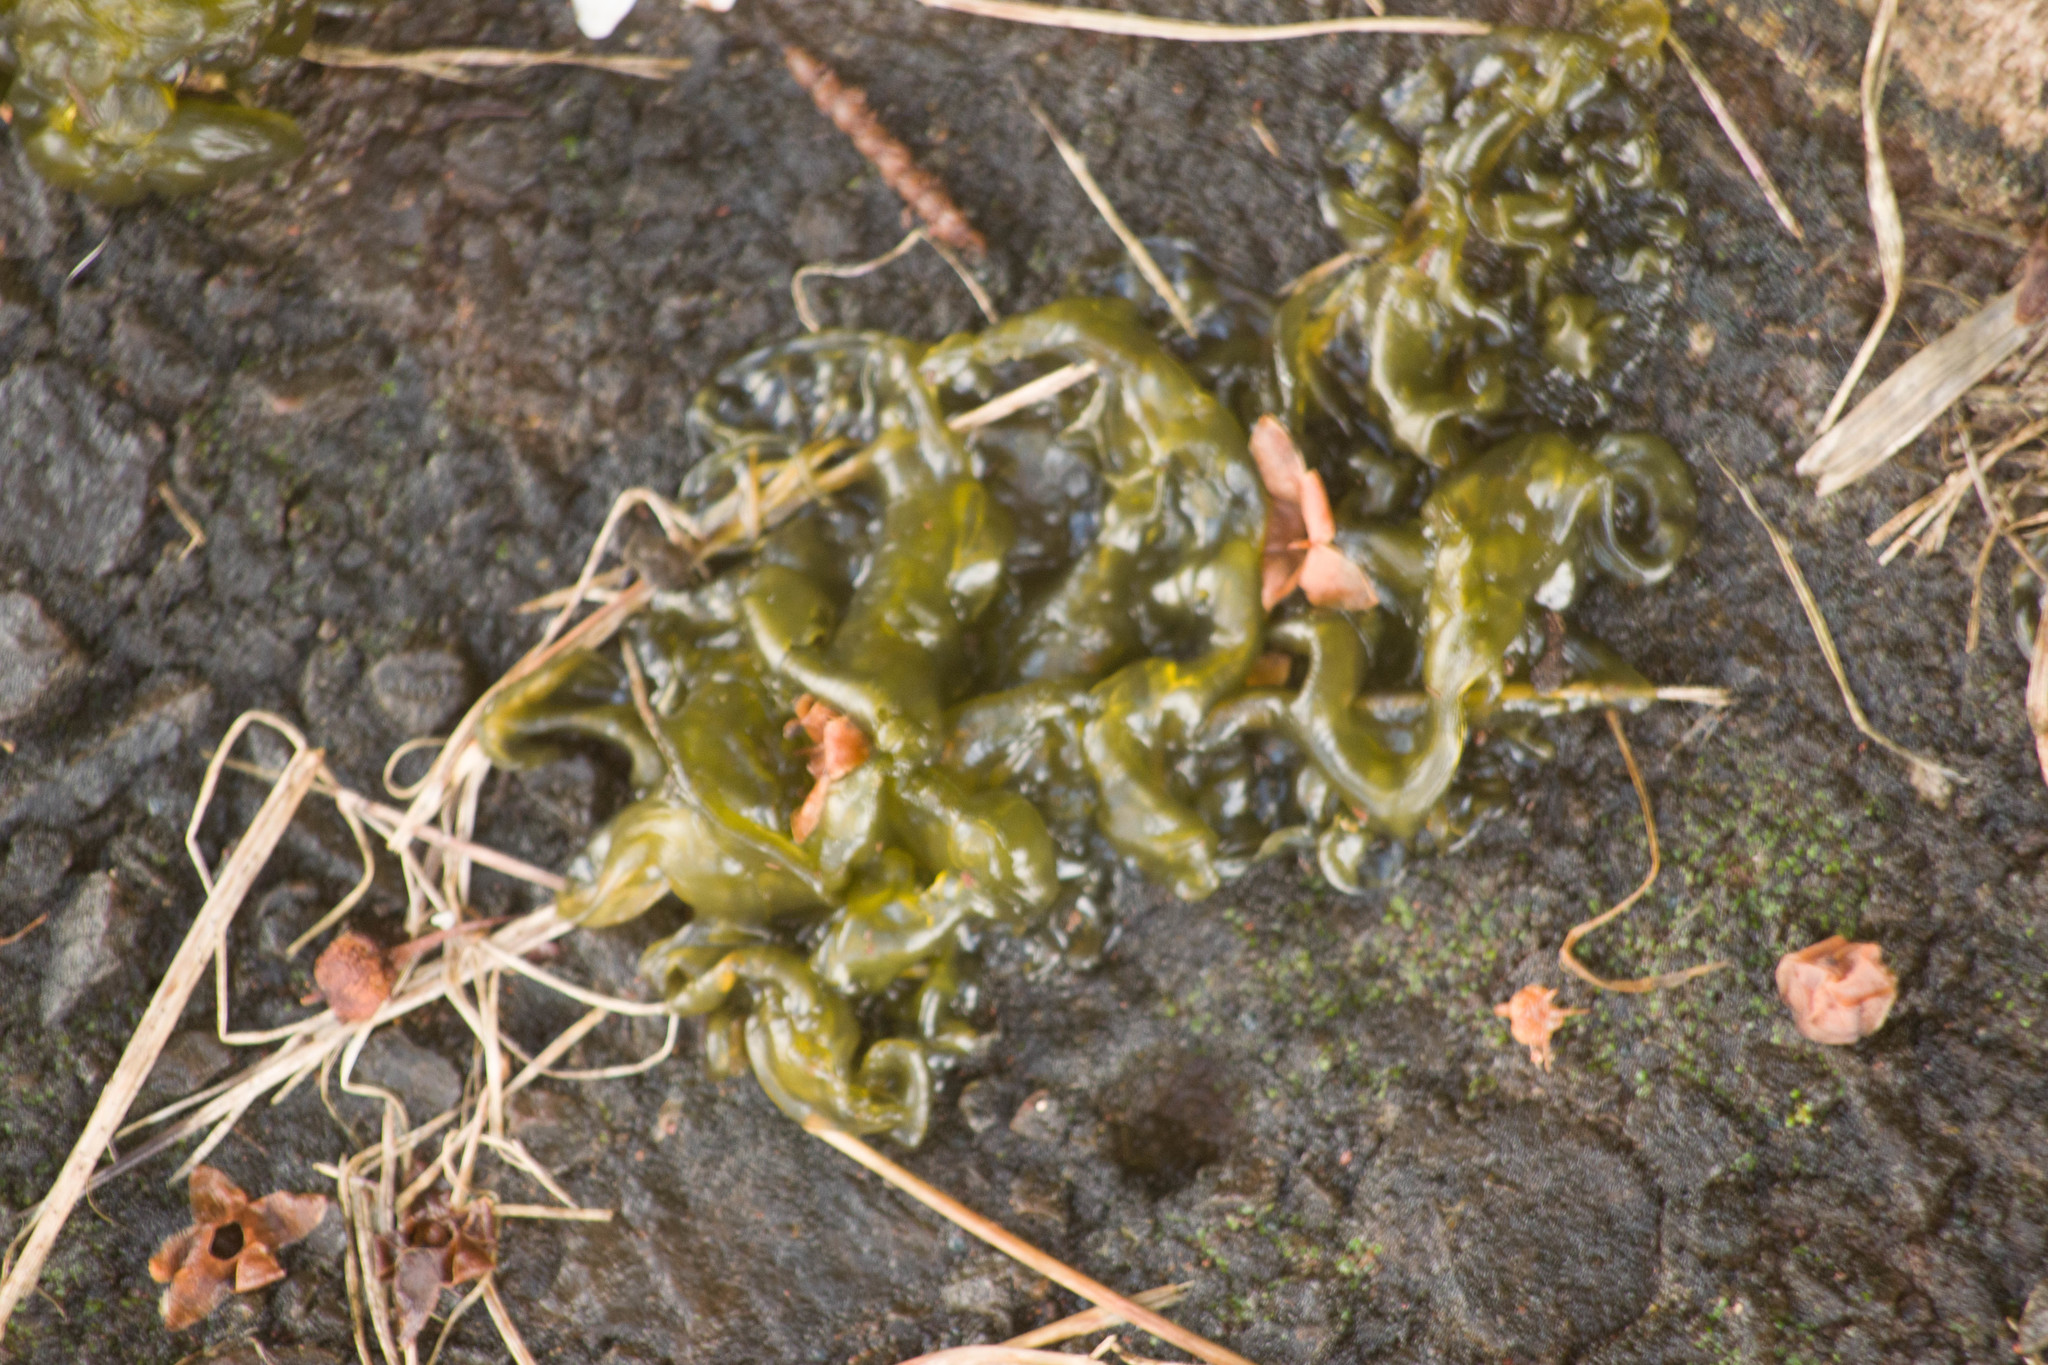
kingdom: Bacteria
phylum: Cyanobacteria
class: Cyanobacteriia
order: Cyanobacteriales
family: Nostocaceae
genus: Nostoc
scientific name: Nostoc commune
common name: Star jelly
